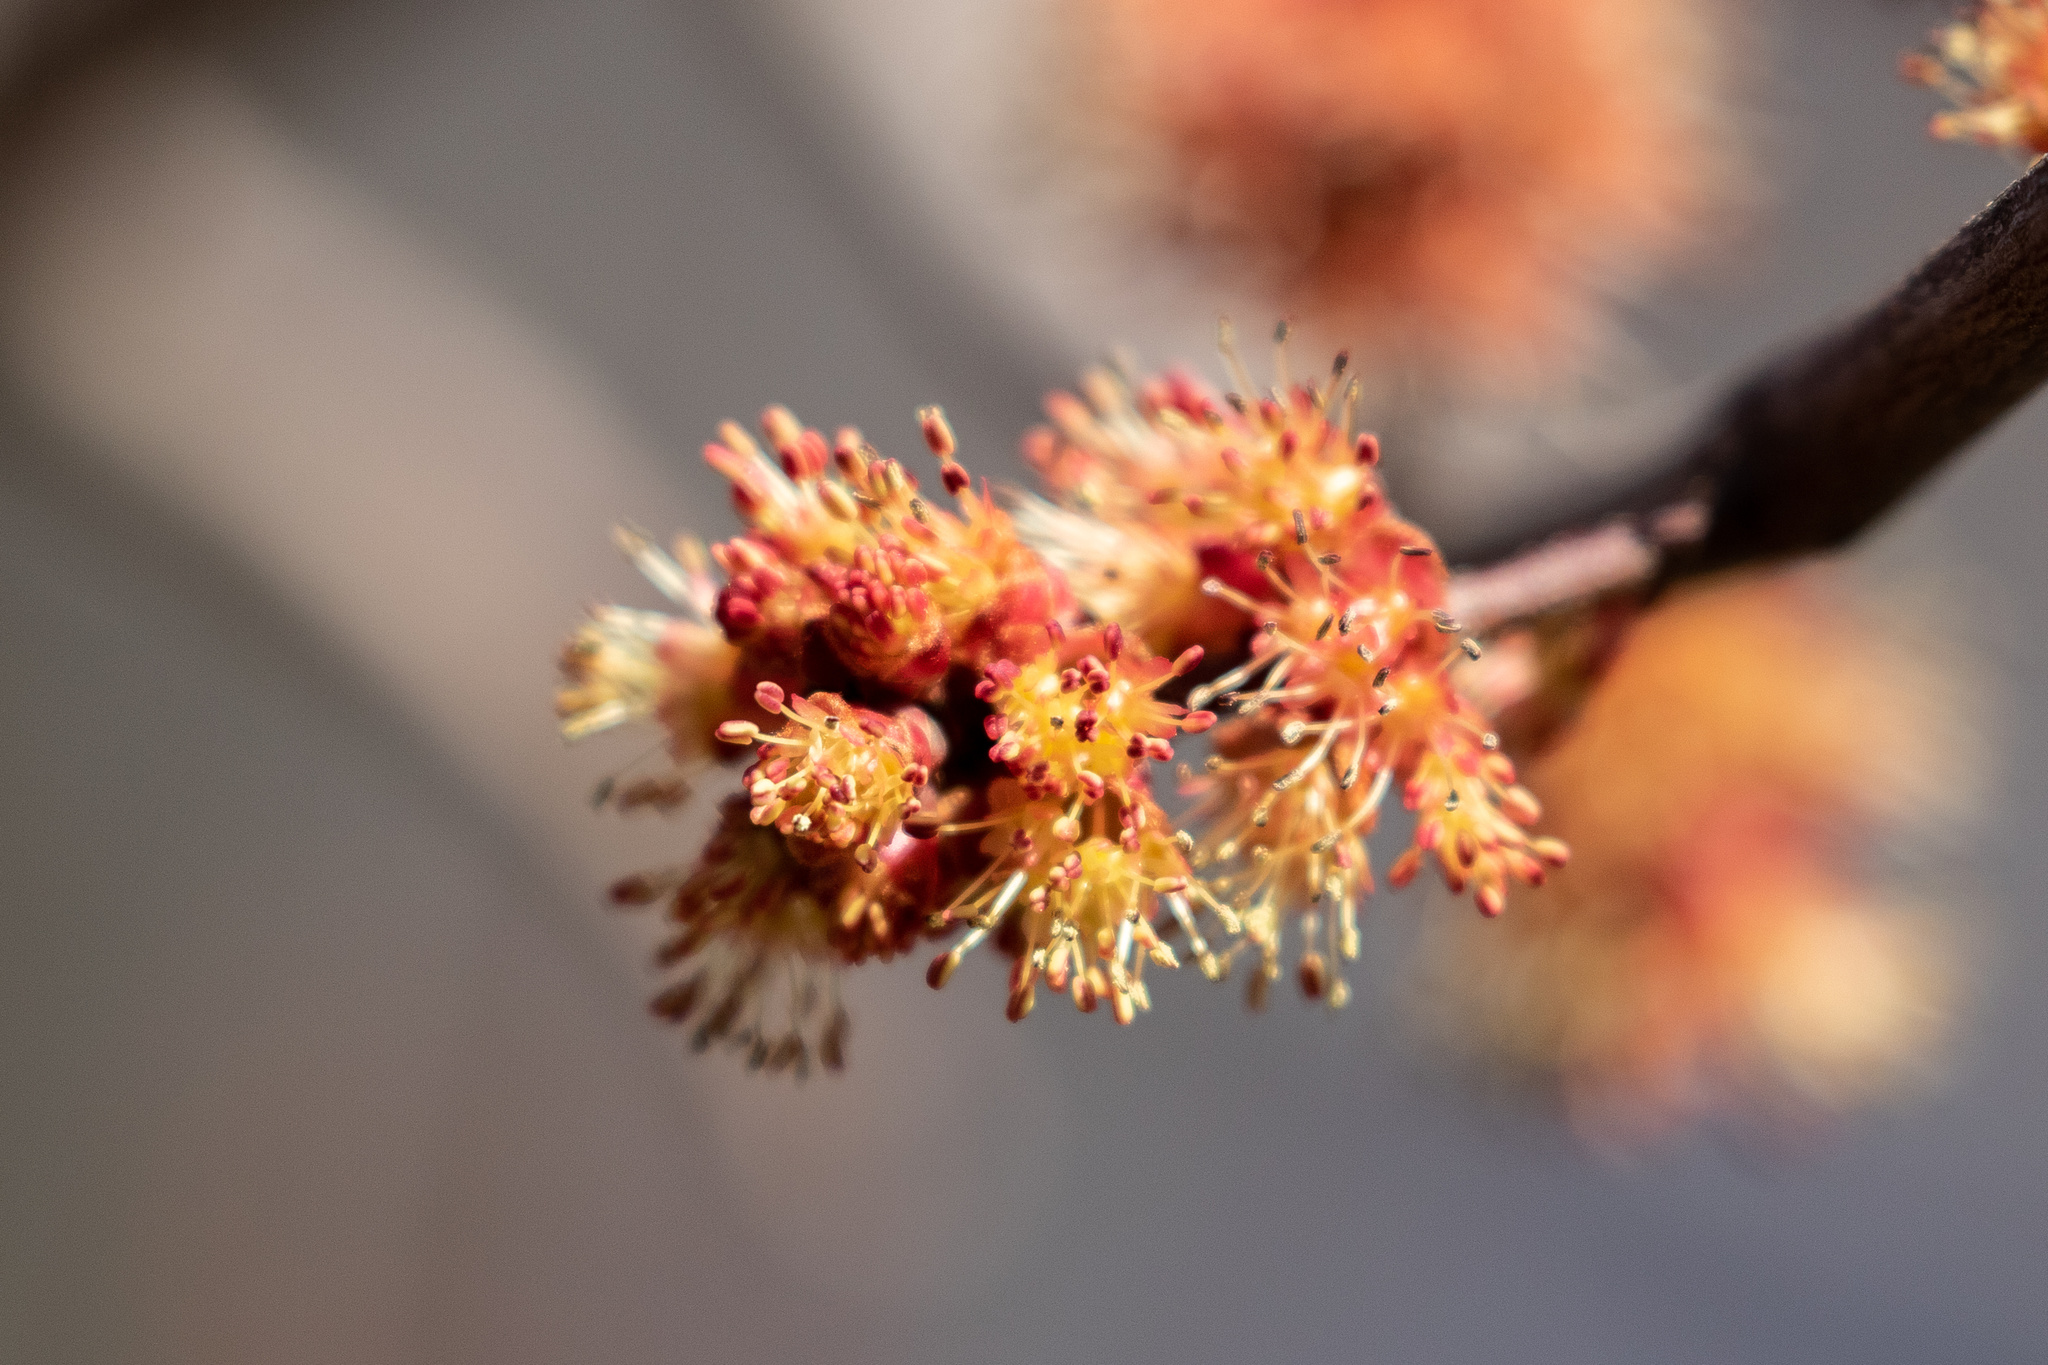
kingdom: Plantae
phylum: Tracheophyta
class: Magnoliopsida
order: Sapindales
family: Sapindaceae
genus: Acer
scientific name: Acer rubrum
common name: Red maple
